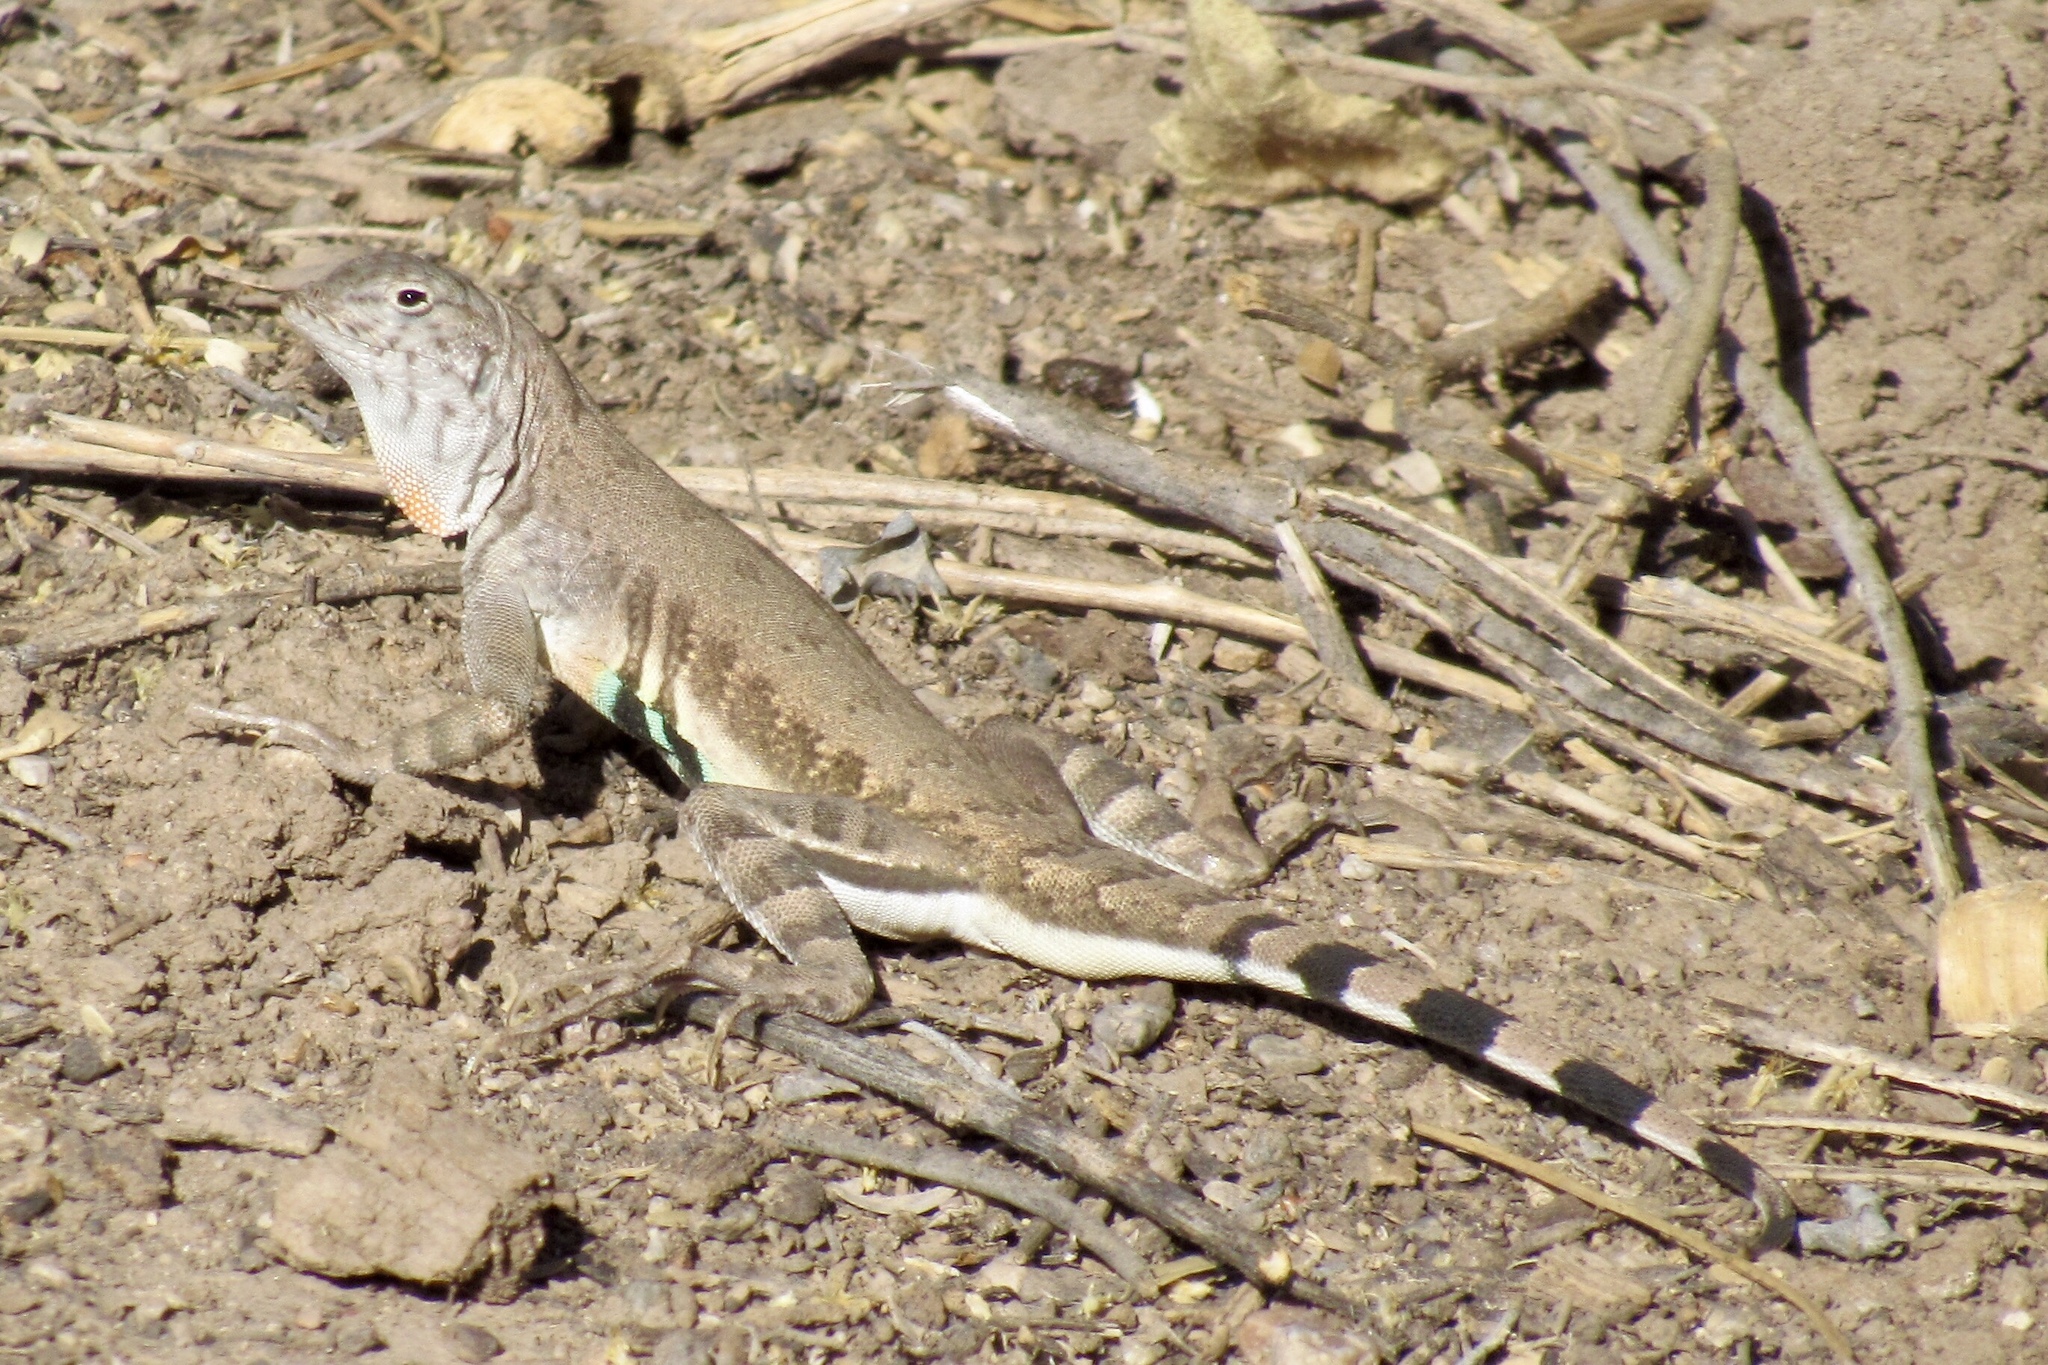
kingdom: Animalia
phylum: Chordata
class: Squamata
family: Phrynosomatidae
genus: Callisaurus
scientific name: Callisaurus draconoides
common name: Zebra-tailed lizard
